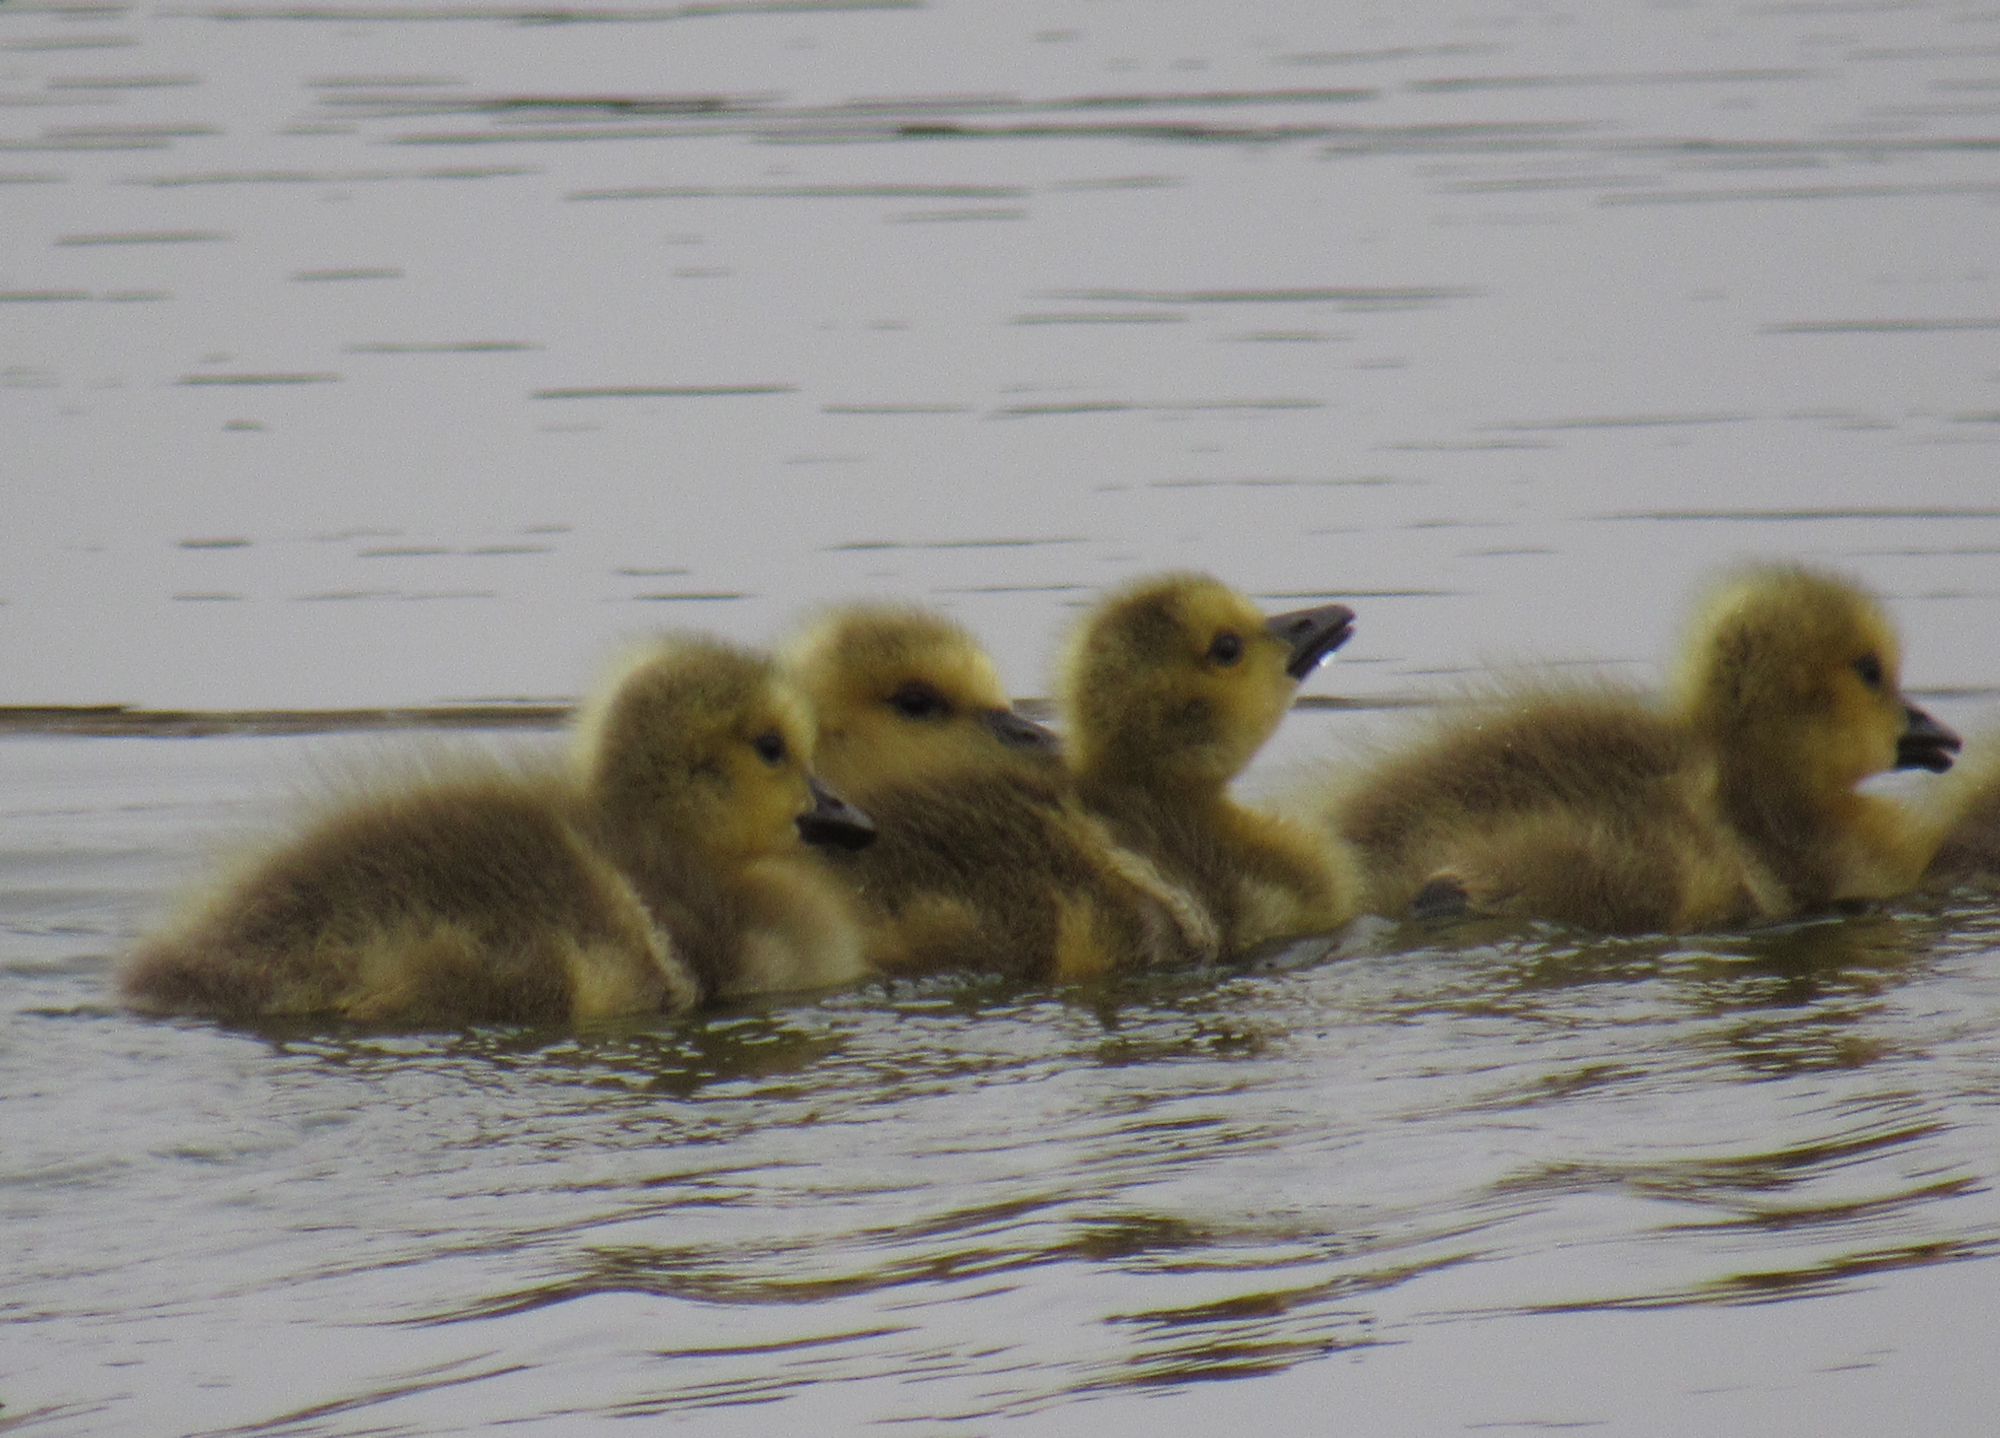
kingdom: Animalia
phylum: Chordata
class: Aves
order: Anseriformes
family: Anatidae
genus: Branta
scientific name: Branta canadensis
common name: Canada goose
